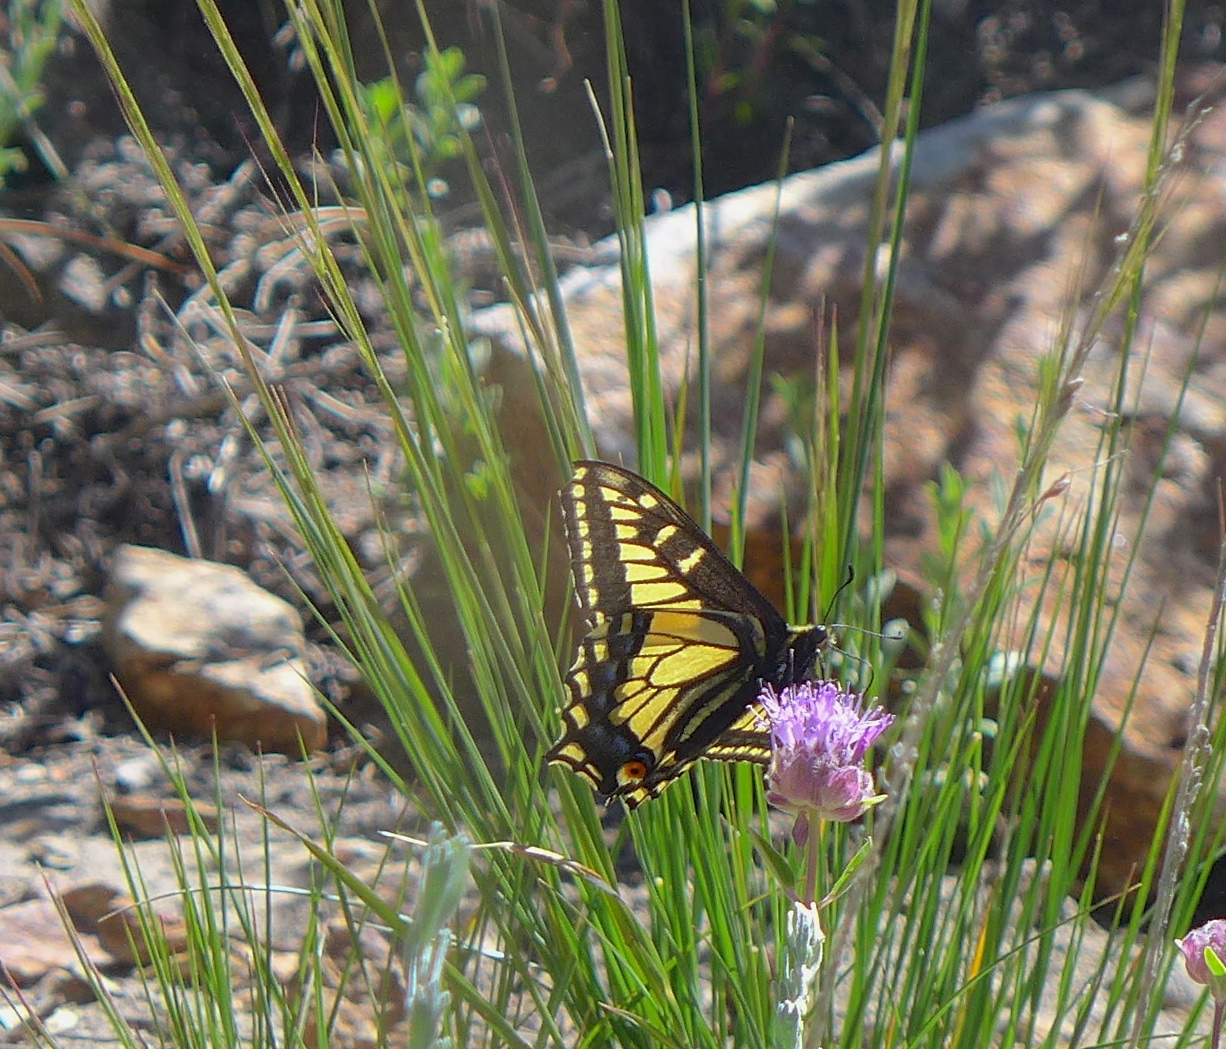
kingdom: Animalia
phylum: Arthropoda
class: Insecta
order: Lepidoptera
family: Papilionidae
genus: Papilio
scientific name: Papilio zelicaon
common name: Anise swallowtail
